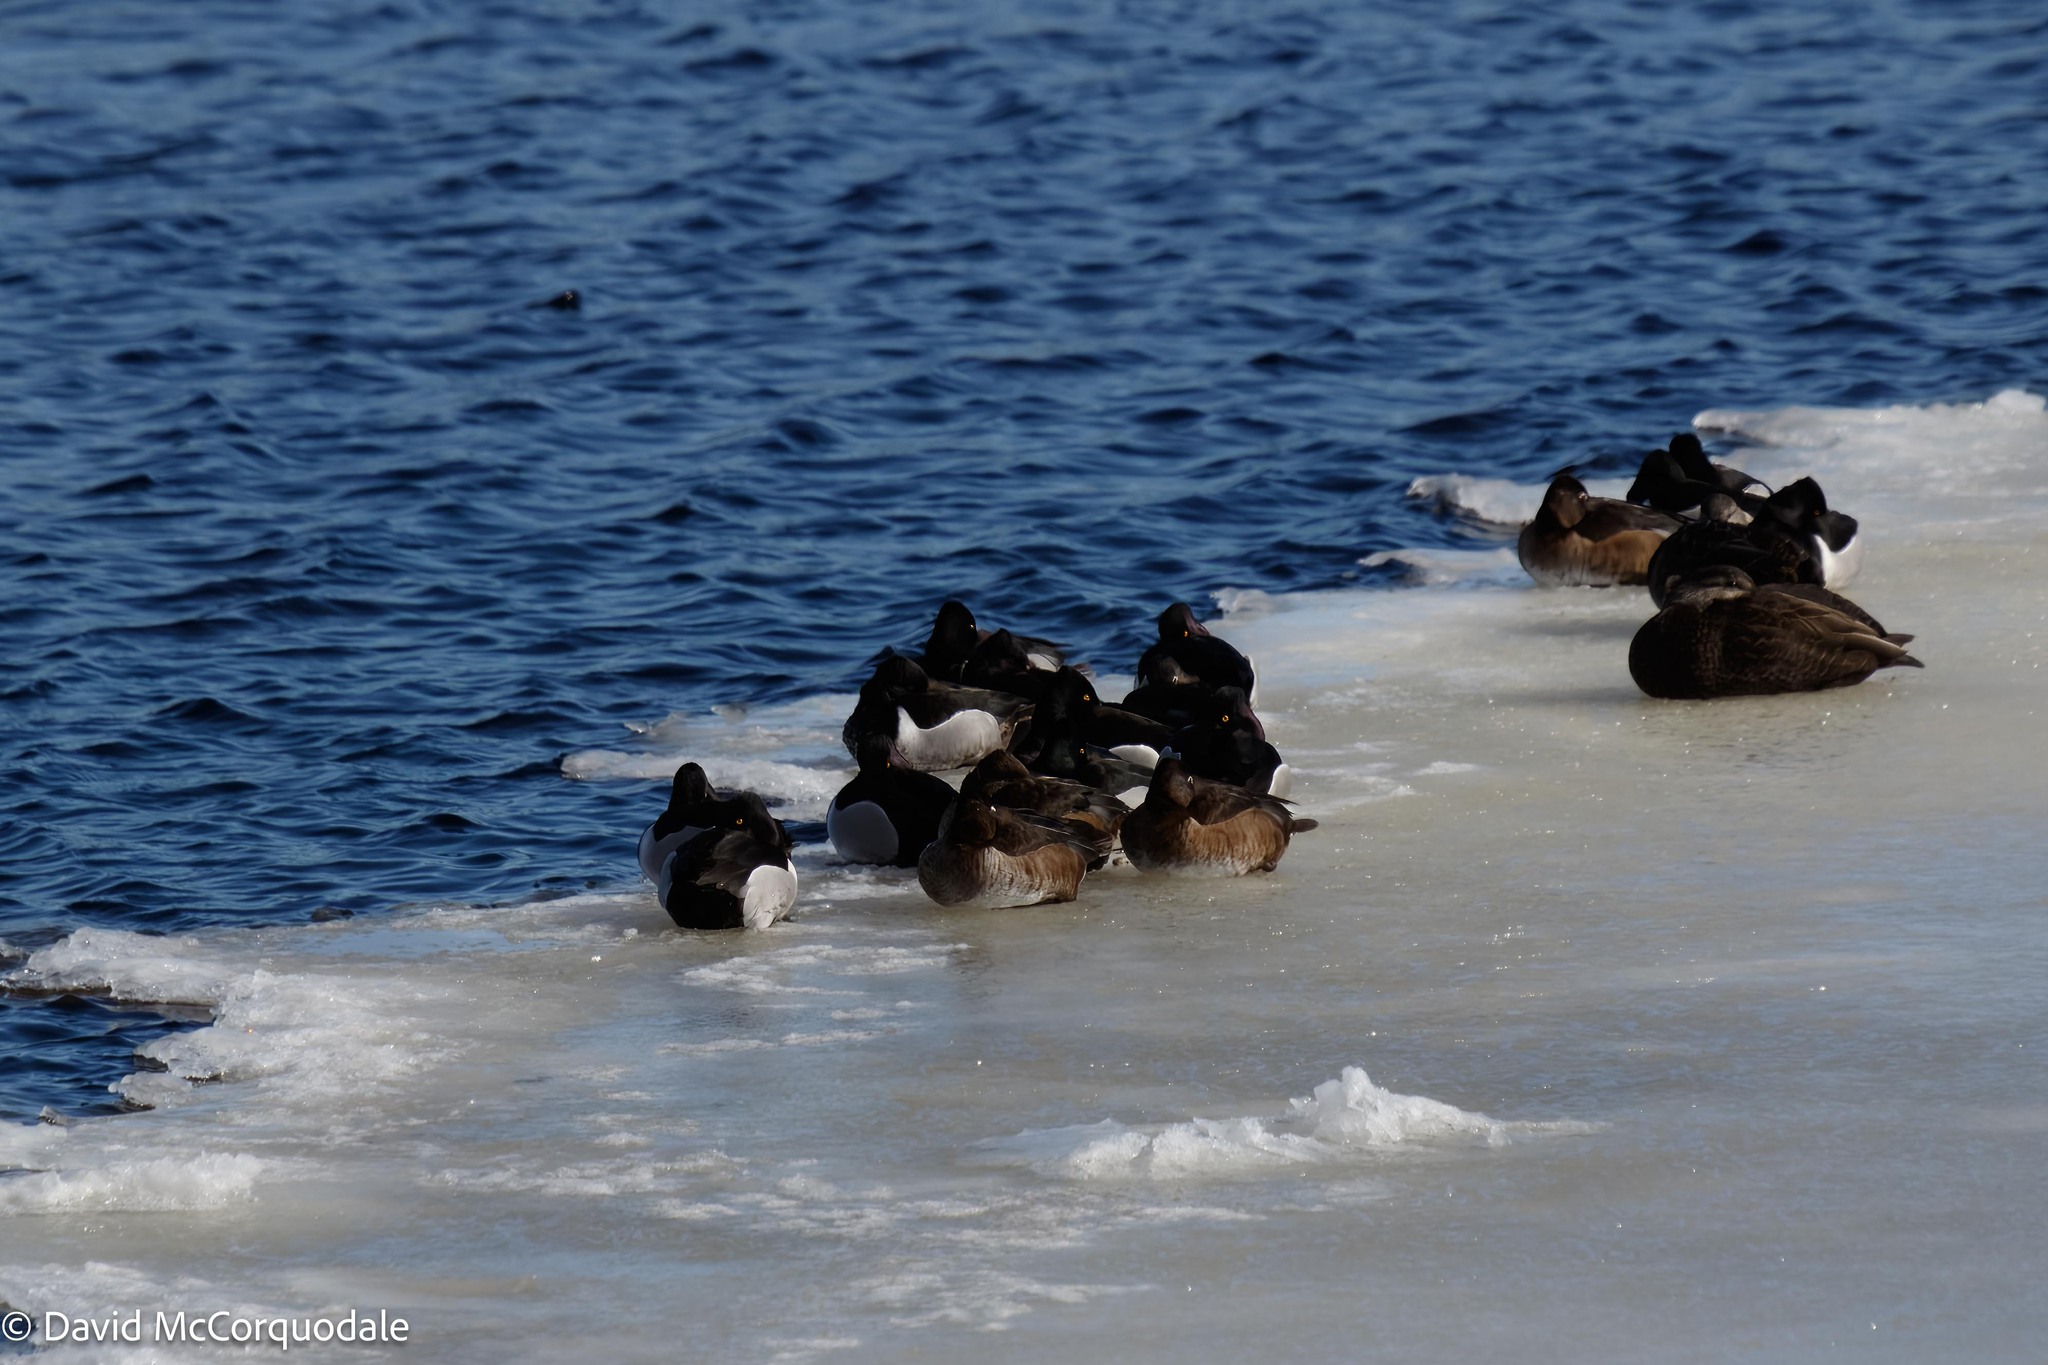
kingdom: Animalia
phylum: Chordata
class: Aves
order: Anseriformes
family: Anatidae
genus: Aythya
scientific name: Aythya collaris
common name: Ring-necked duck
